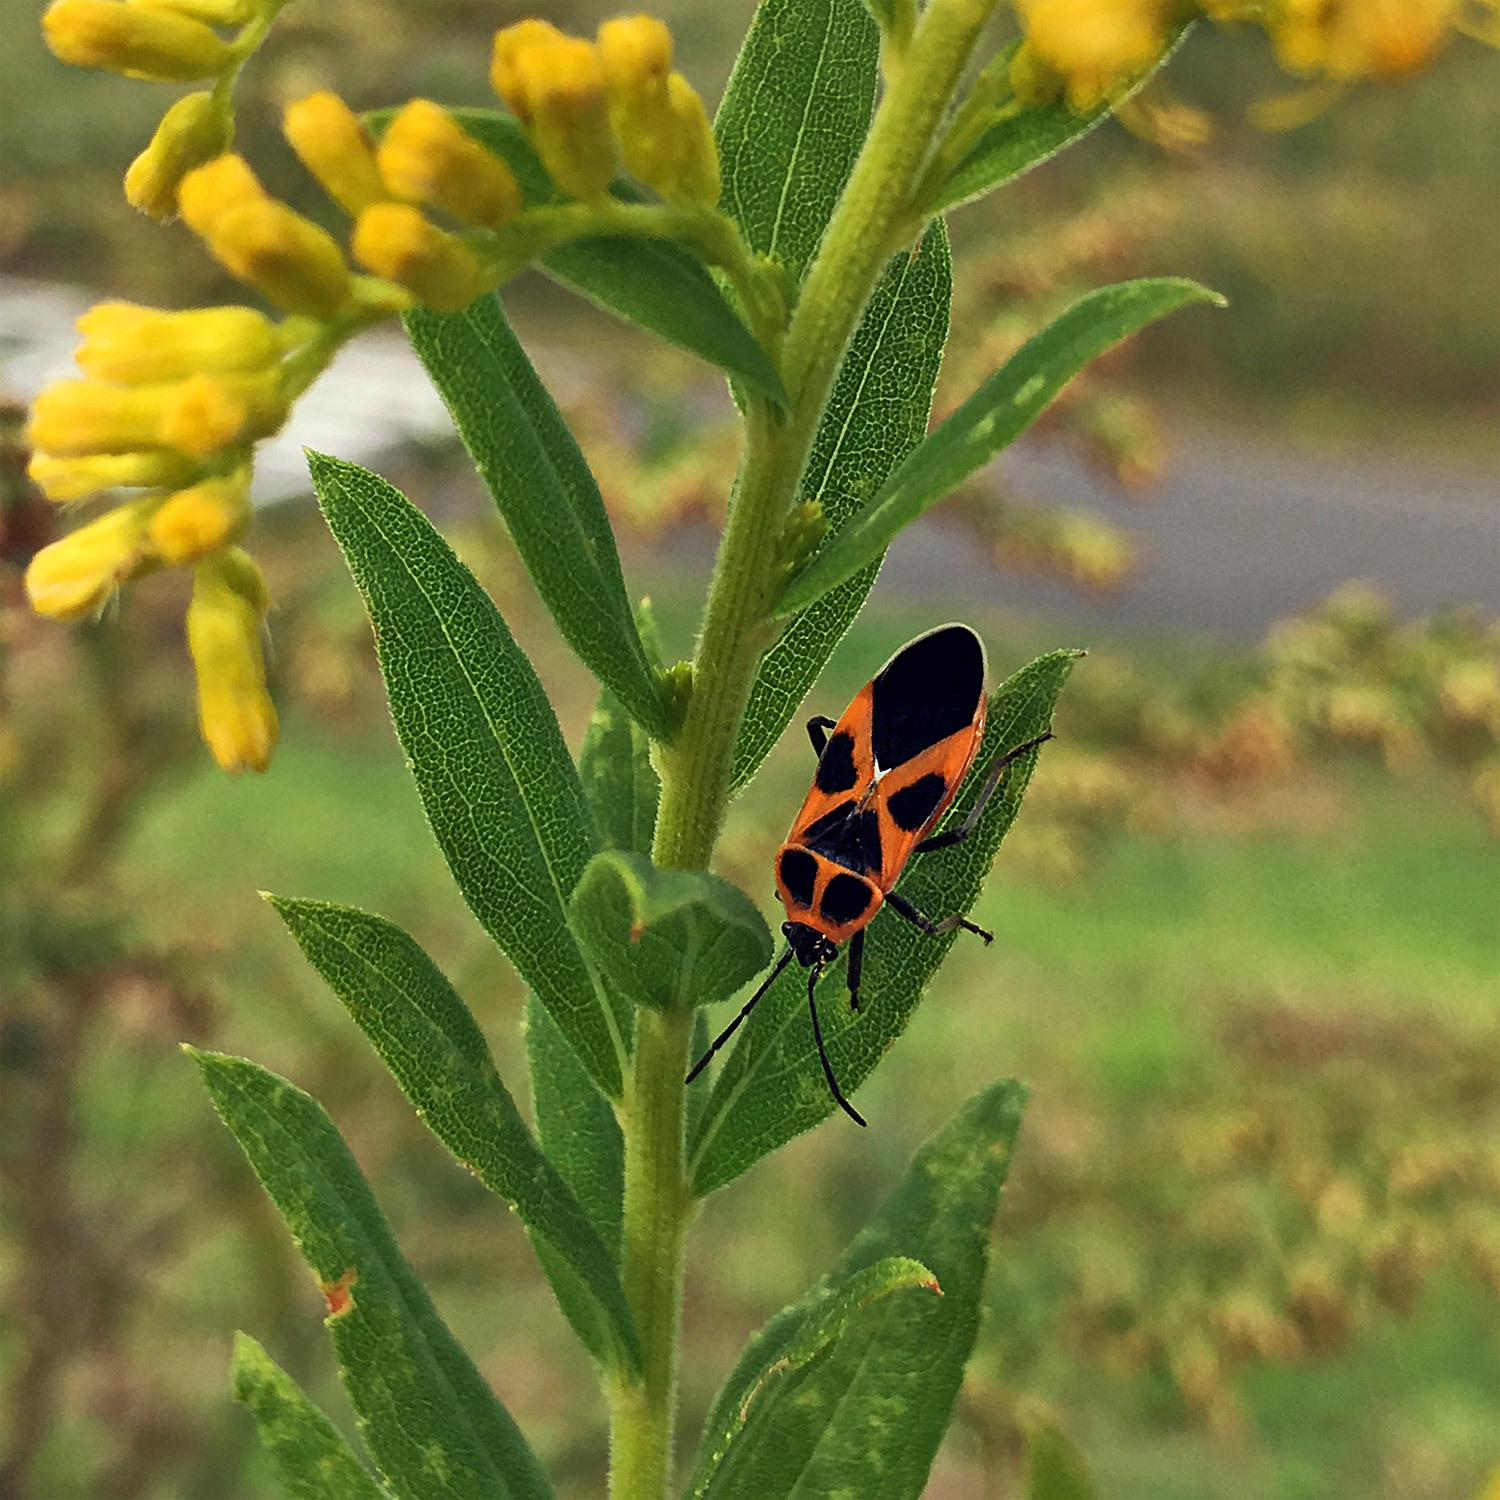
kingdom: Animalia
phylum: Arthropoda
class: Insecta
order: Hemiptera
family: Lygaeidae
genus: Tropidothorax
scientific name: Tropidothorax
